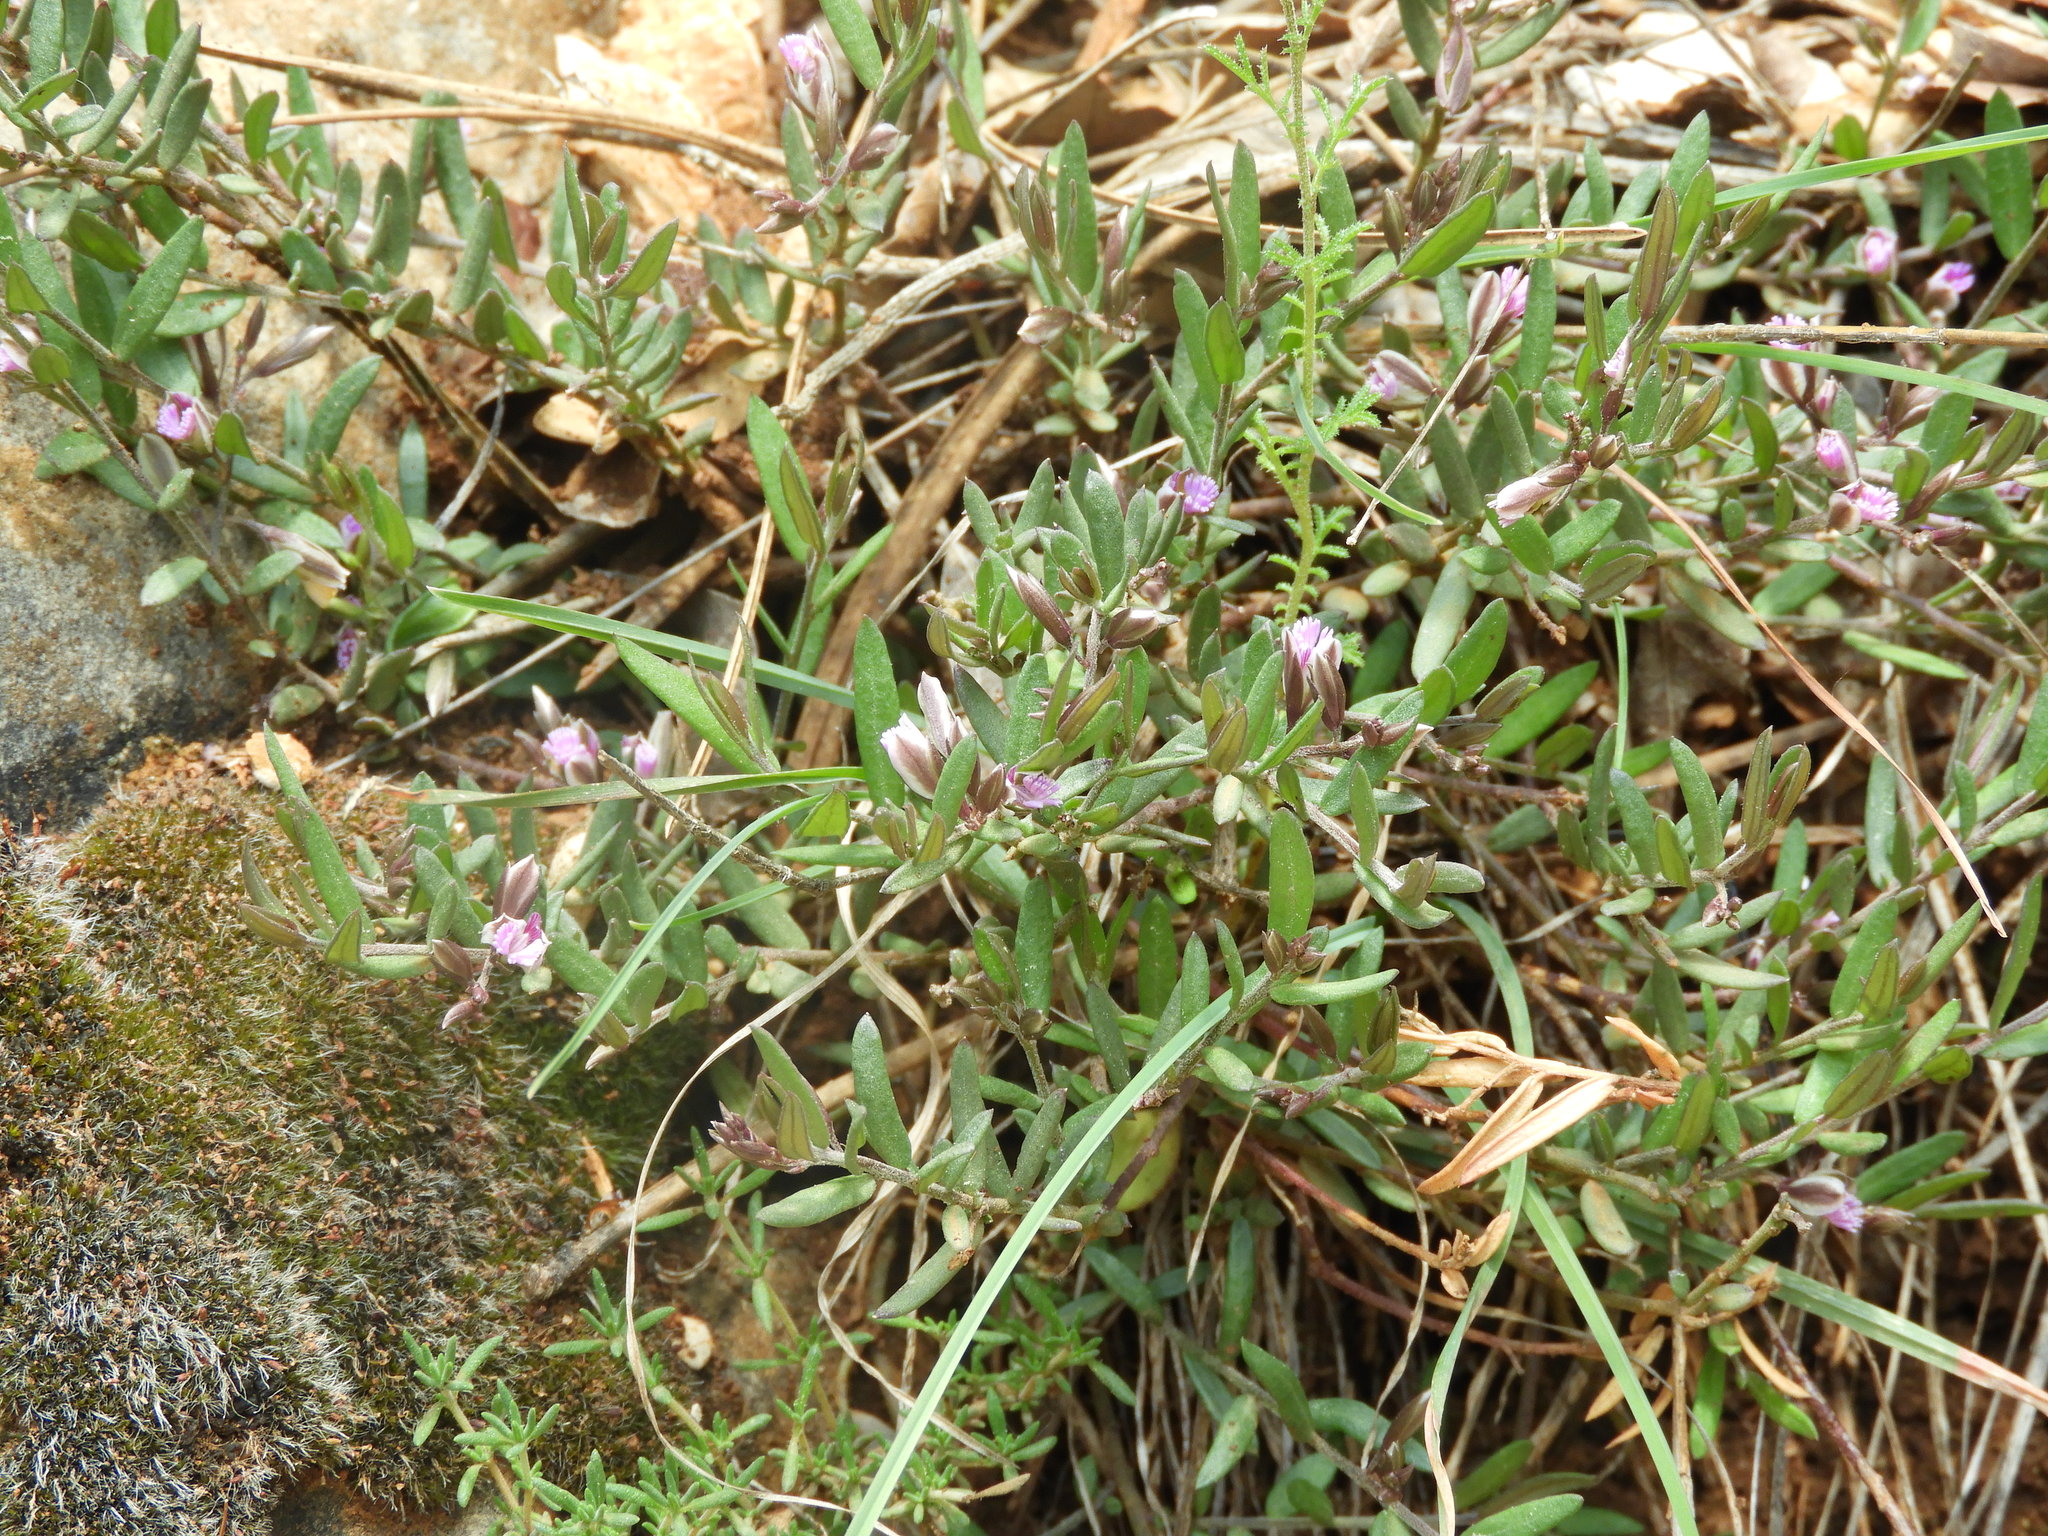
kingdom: Plantae
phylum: Tracheophyta
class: Magnoliopsida
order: Fabales
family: Polygalaceae
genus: Polygala
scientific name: Polygala rupestris
